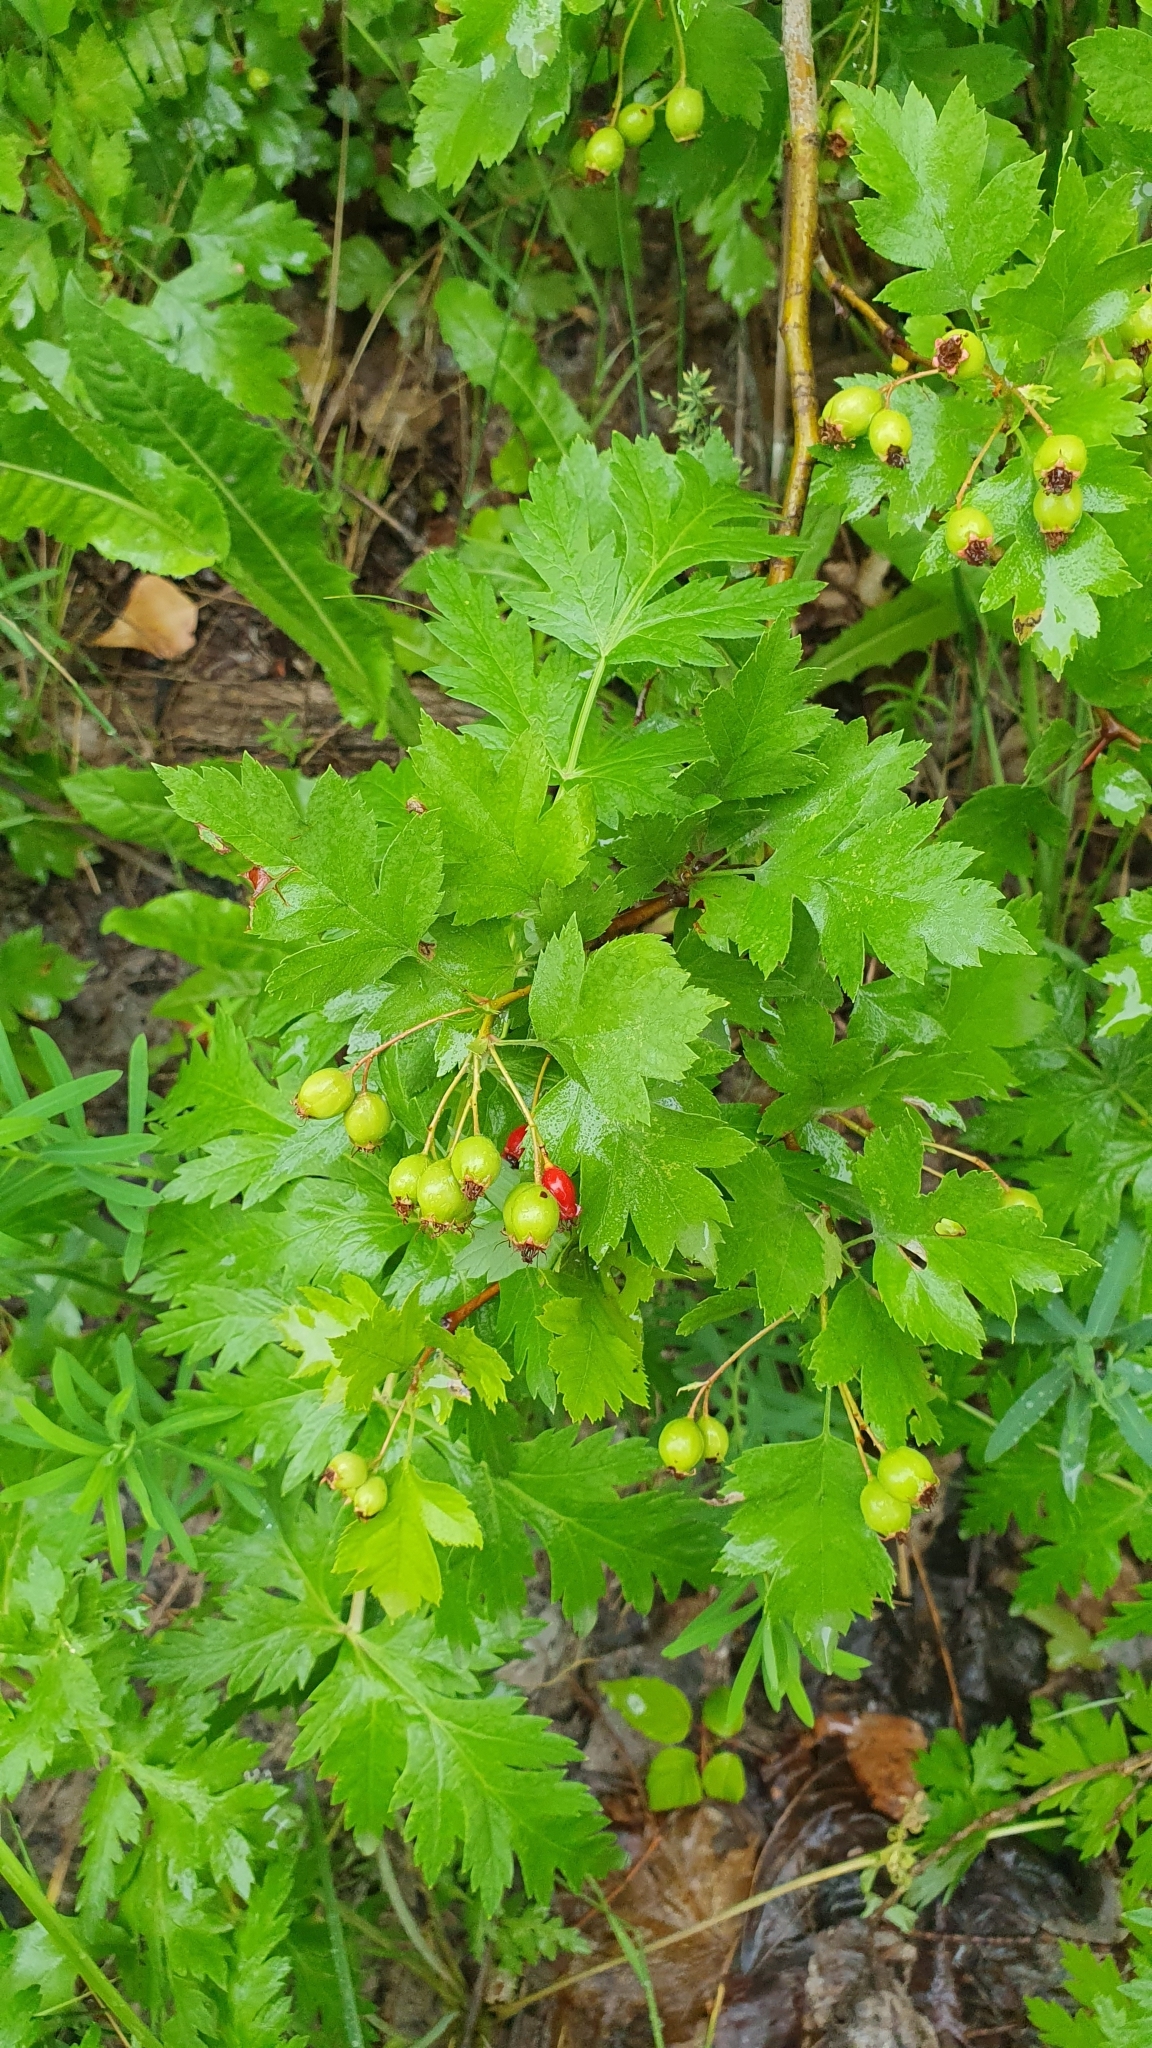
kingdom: Plantae
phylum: Tracheophyta
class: Magnoliopsida
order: Rosales
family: Rosaceae
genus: Crataegus
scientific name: Crataegus monogyna
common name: Hawthorn
